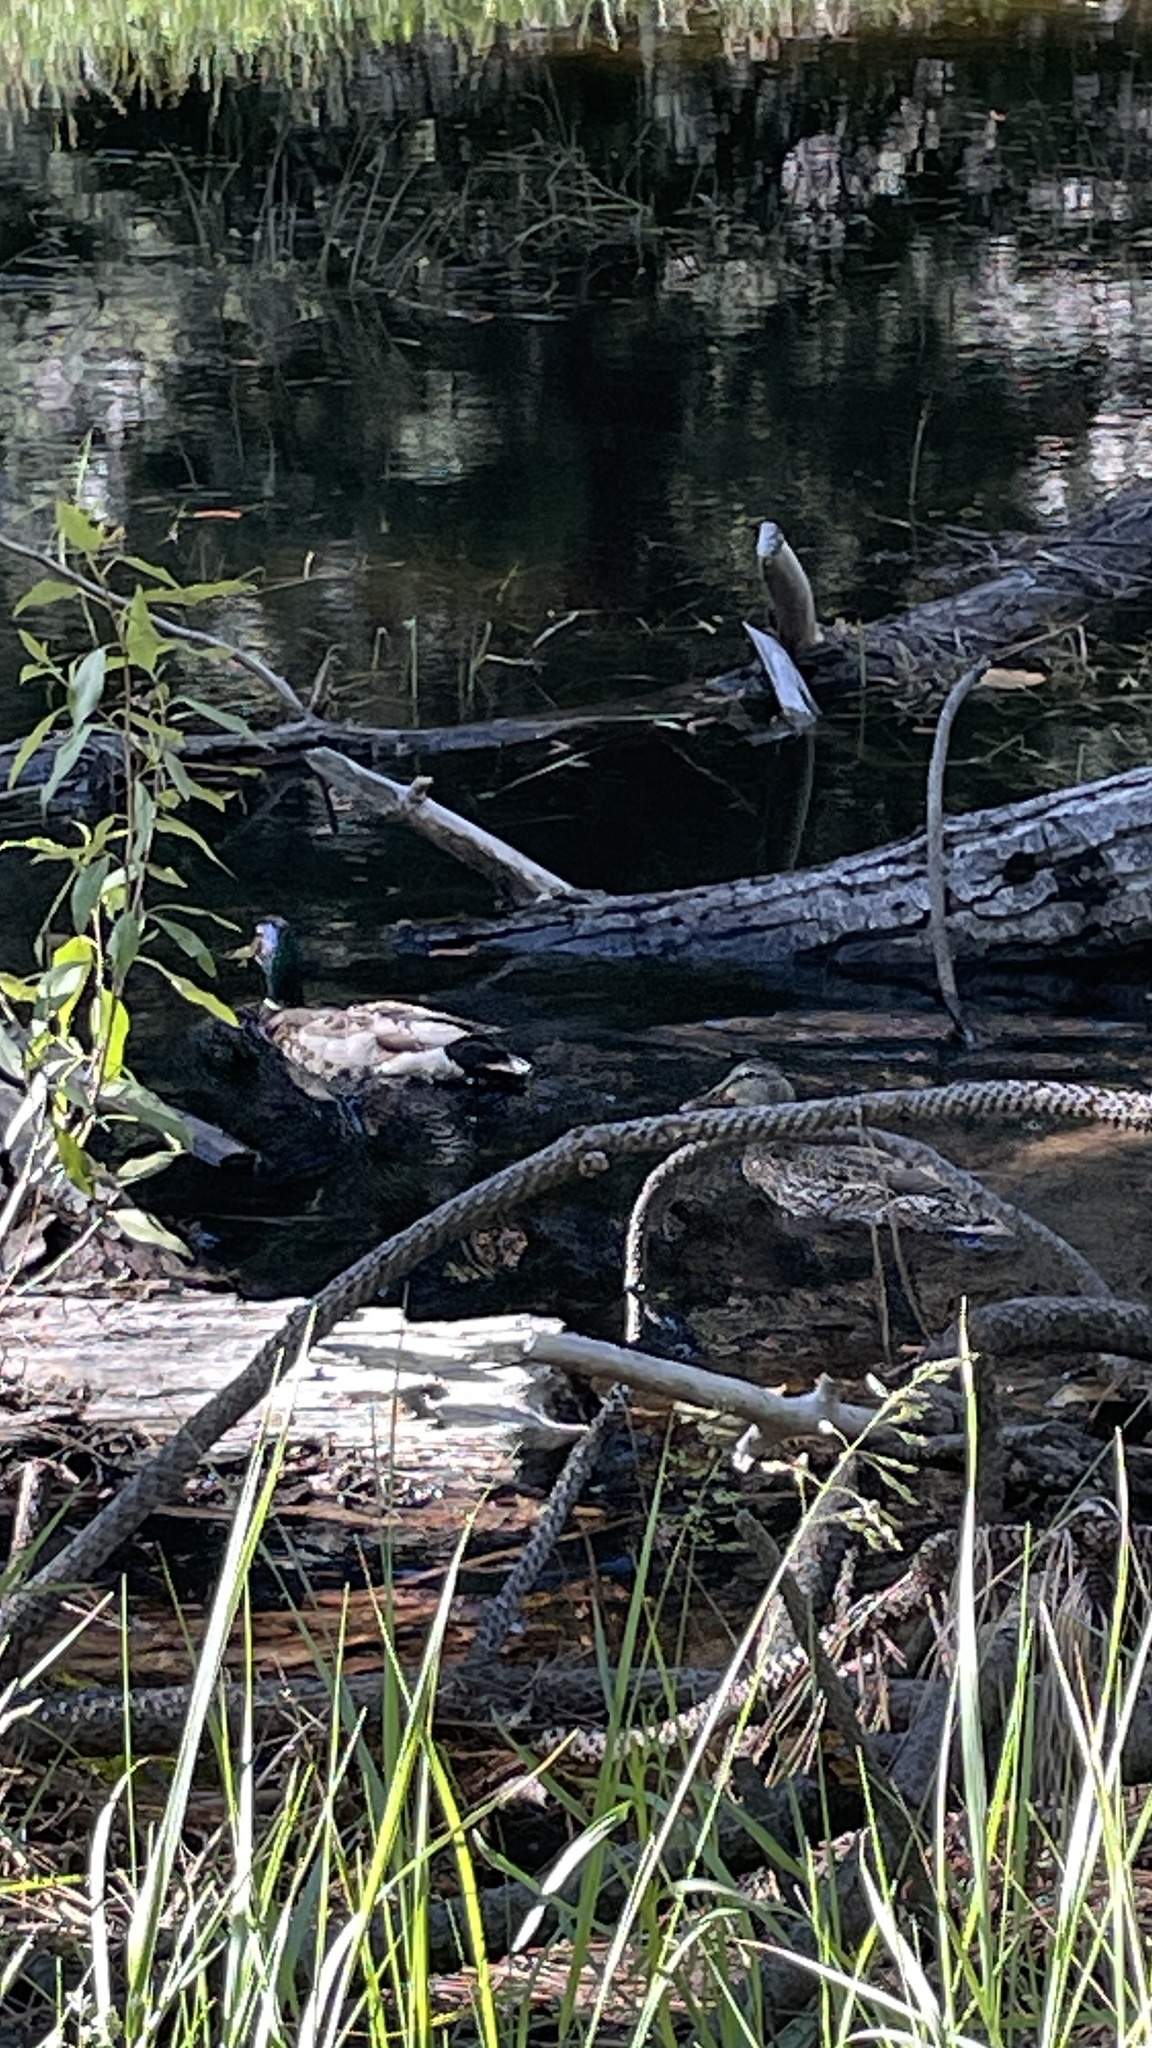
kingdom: Animalia
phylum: Chordata
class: Aves
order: Anseriformes
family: Anatidae
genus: Anas
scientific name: Anas platyrhynchos
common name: Mallard
